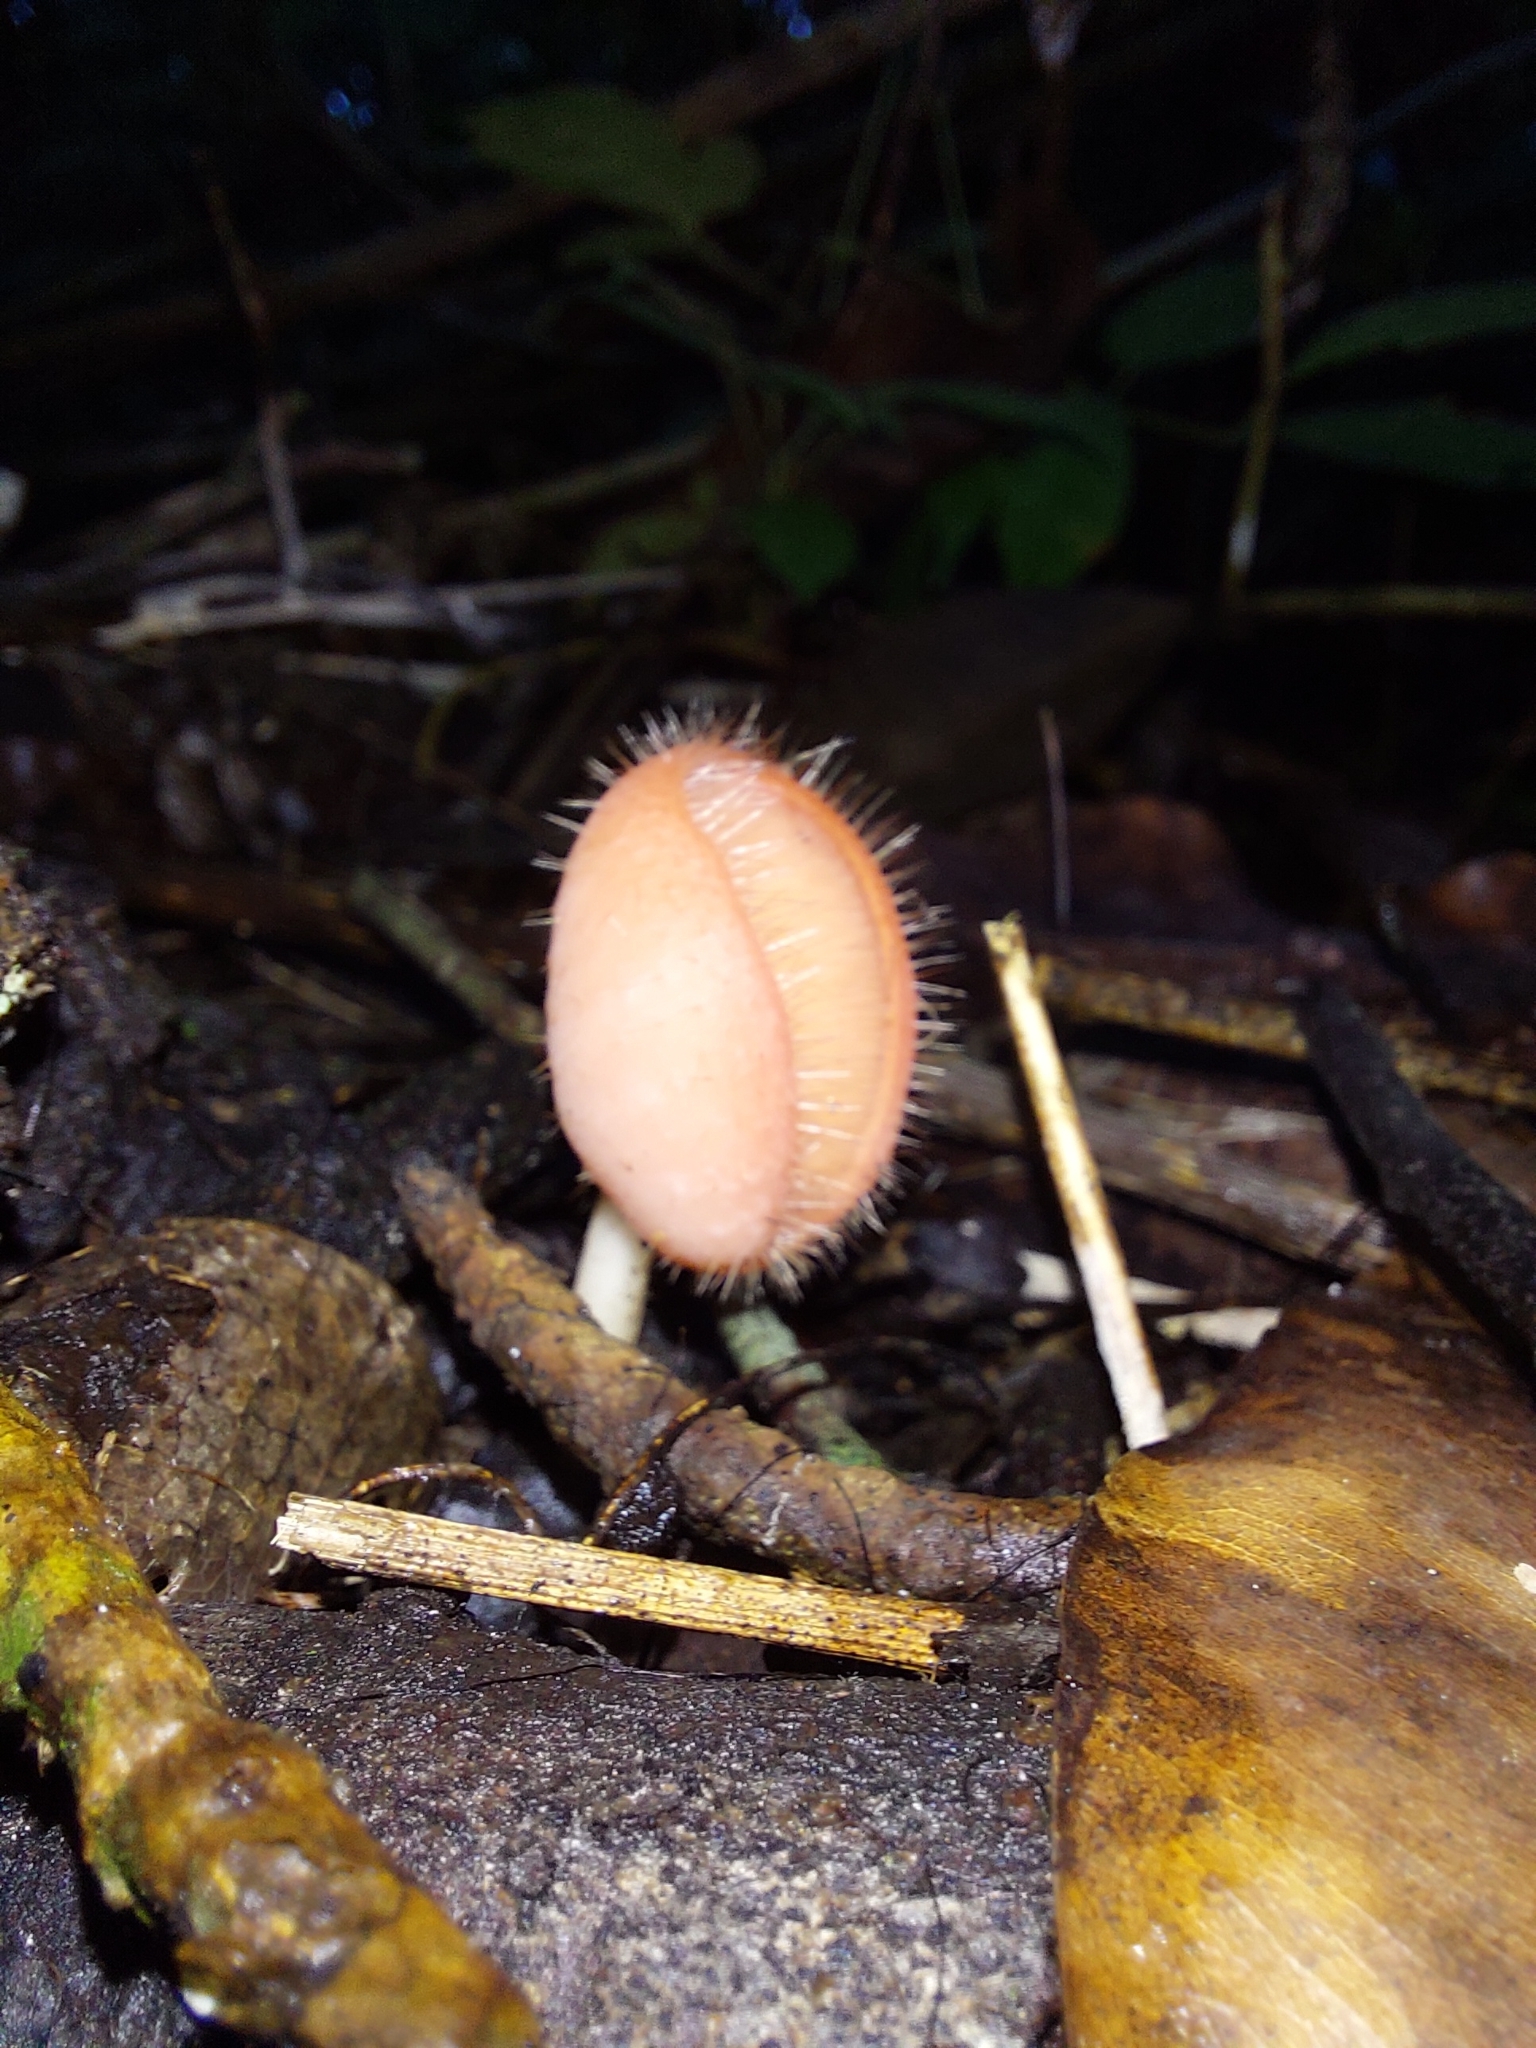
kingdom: Fungi
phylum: Ascomycota
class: Pezizomycetes
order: Pezizales
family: Sarcoscyphaceae
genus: Cookeina
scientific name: Cookeina tricholoma
